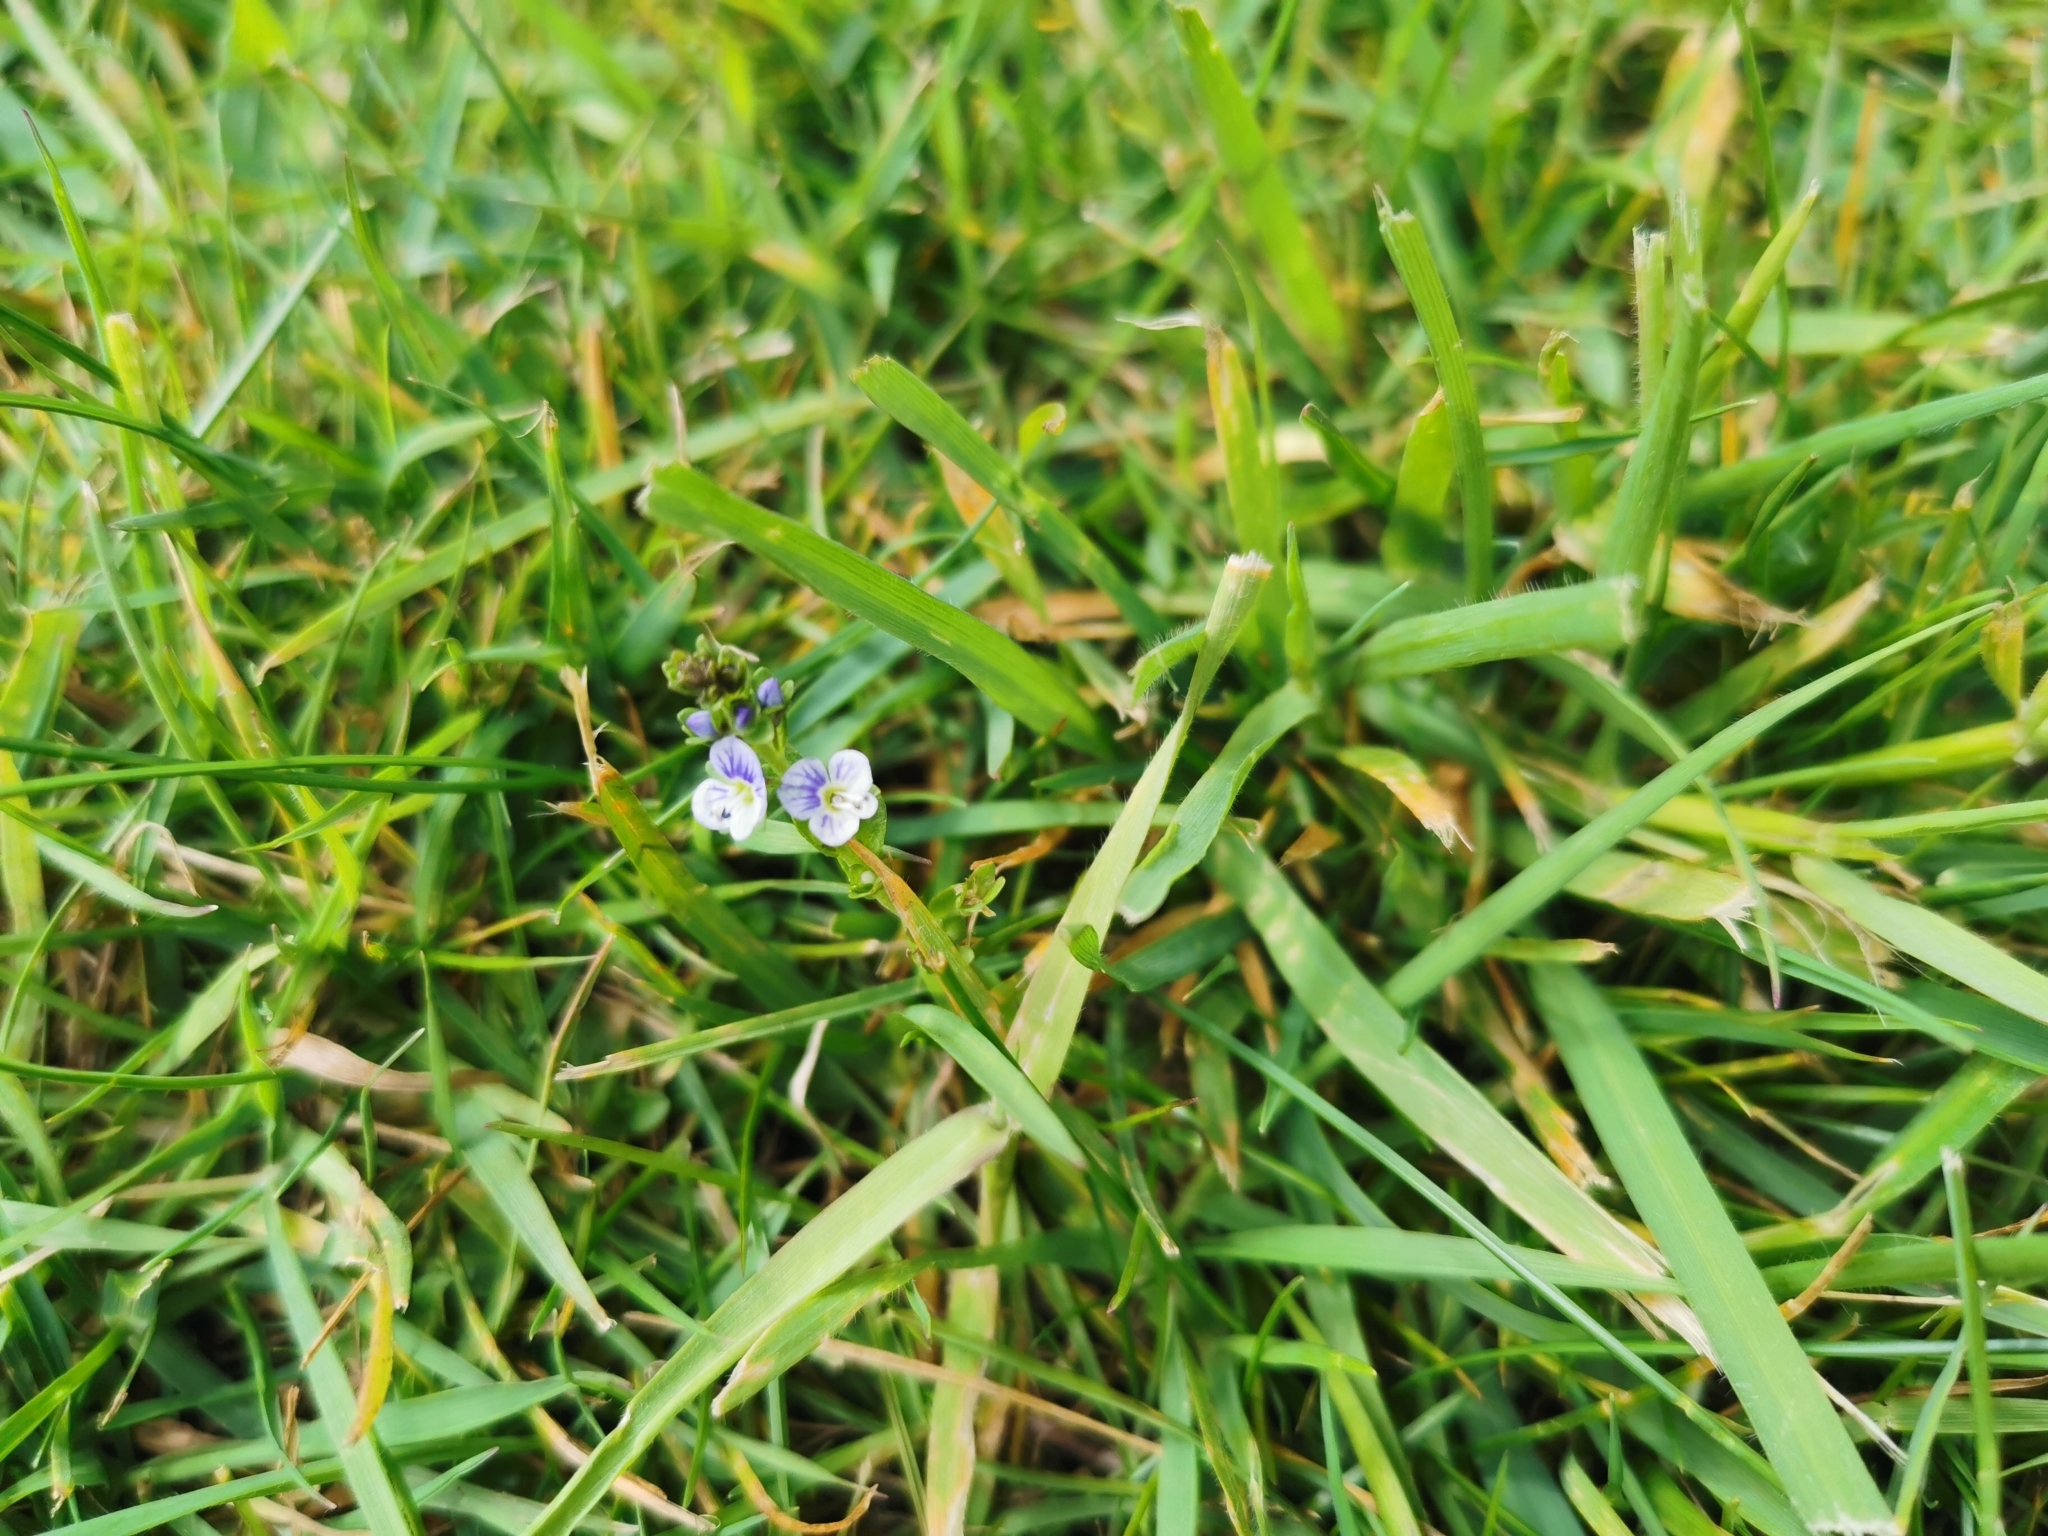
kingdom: Plantae
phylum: Tracheophyta
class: Magnoliopsida
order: Lamiales
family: Plantaginaceae
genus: Veronica
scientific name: Veronica serpyllifolia
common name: Thyme-leaved speedwell
